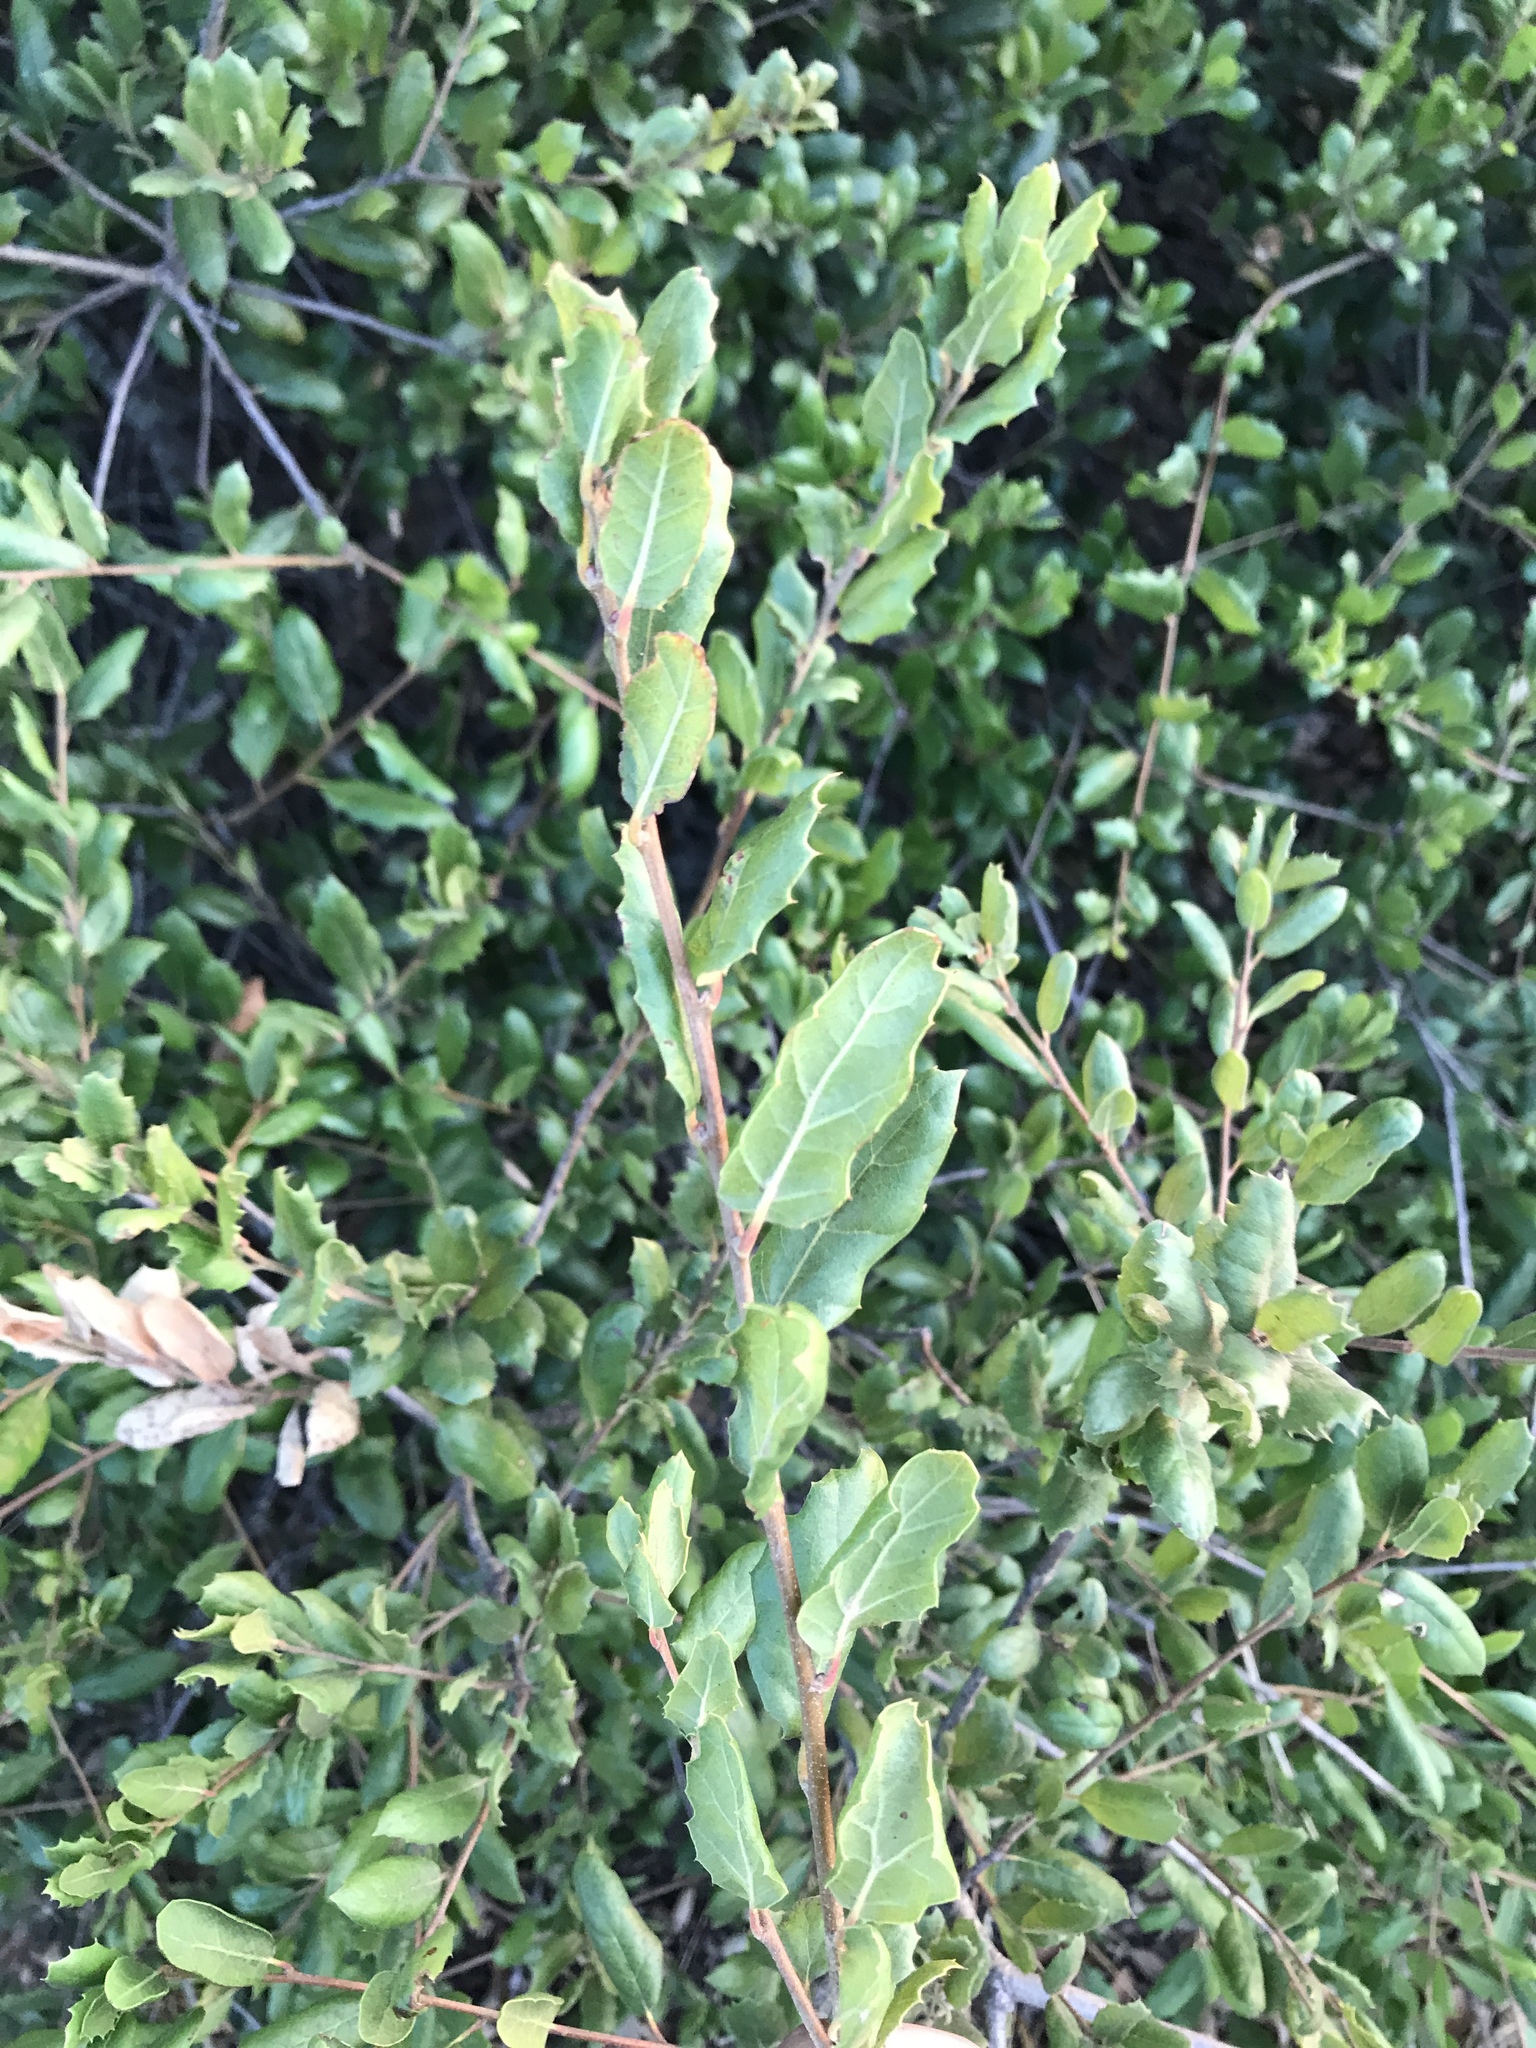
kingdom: Plantae
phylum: Tracheophyta
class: Magnoliopsida
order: Fagales
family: Fagaceae
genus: Quercus
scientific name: Quercus agrifolia
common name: California live oak
